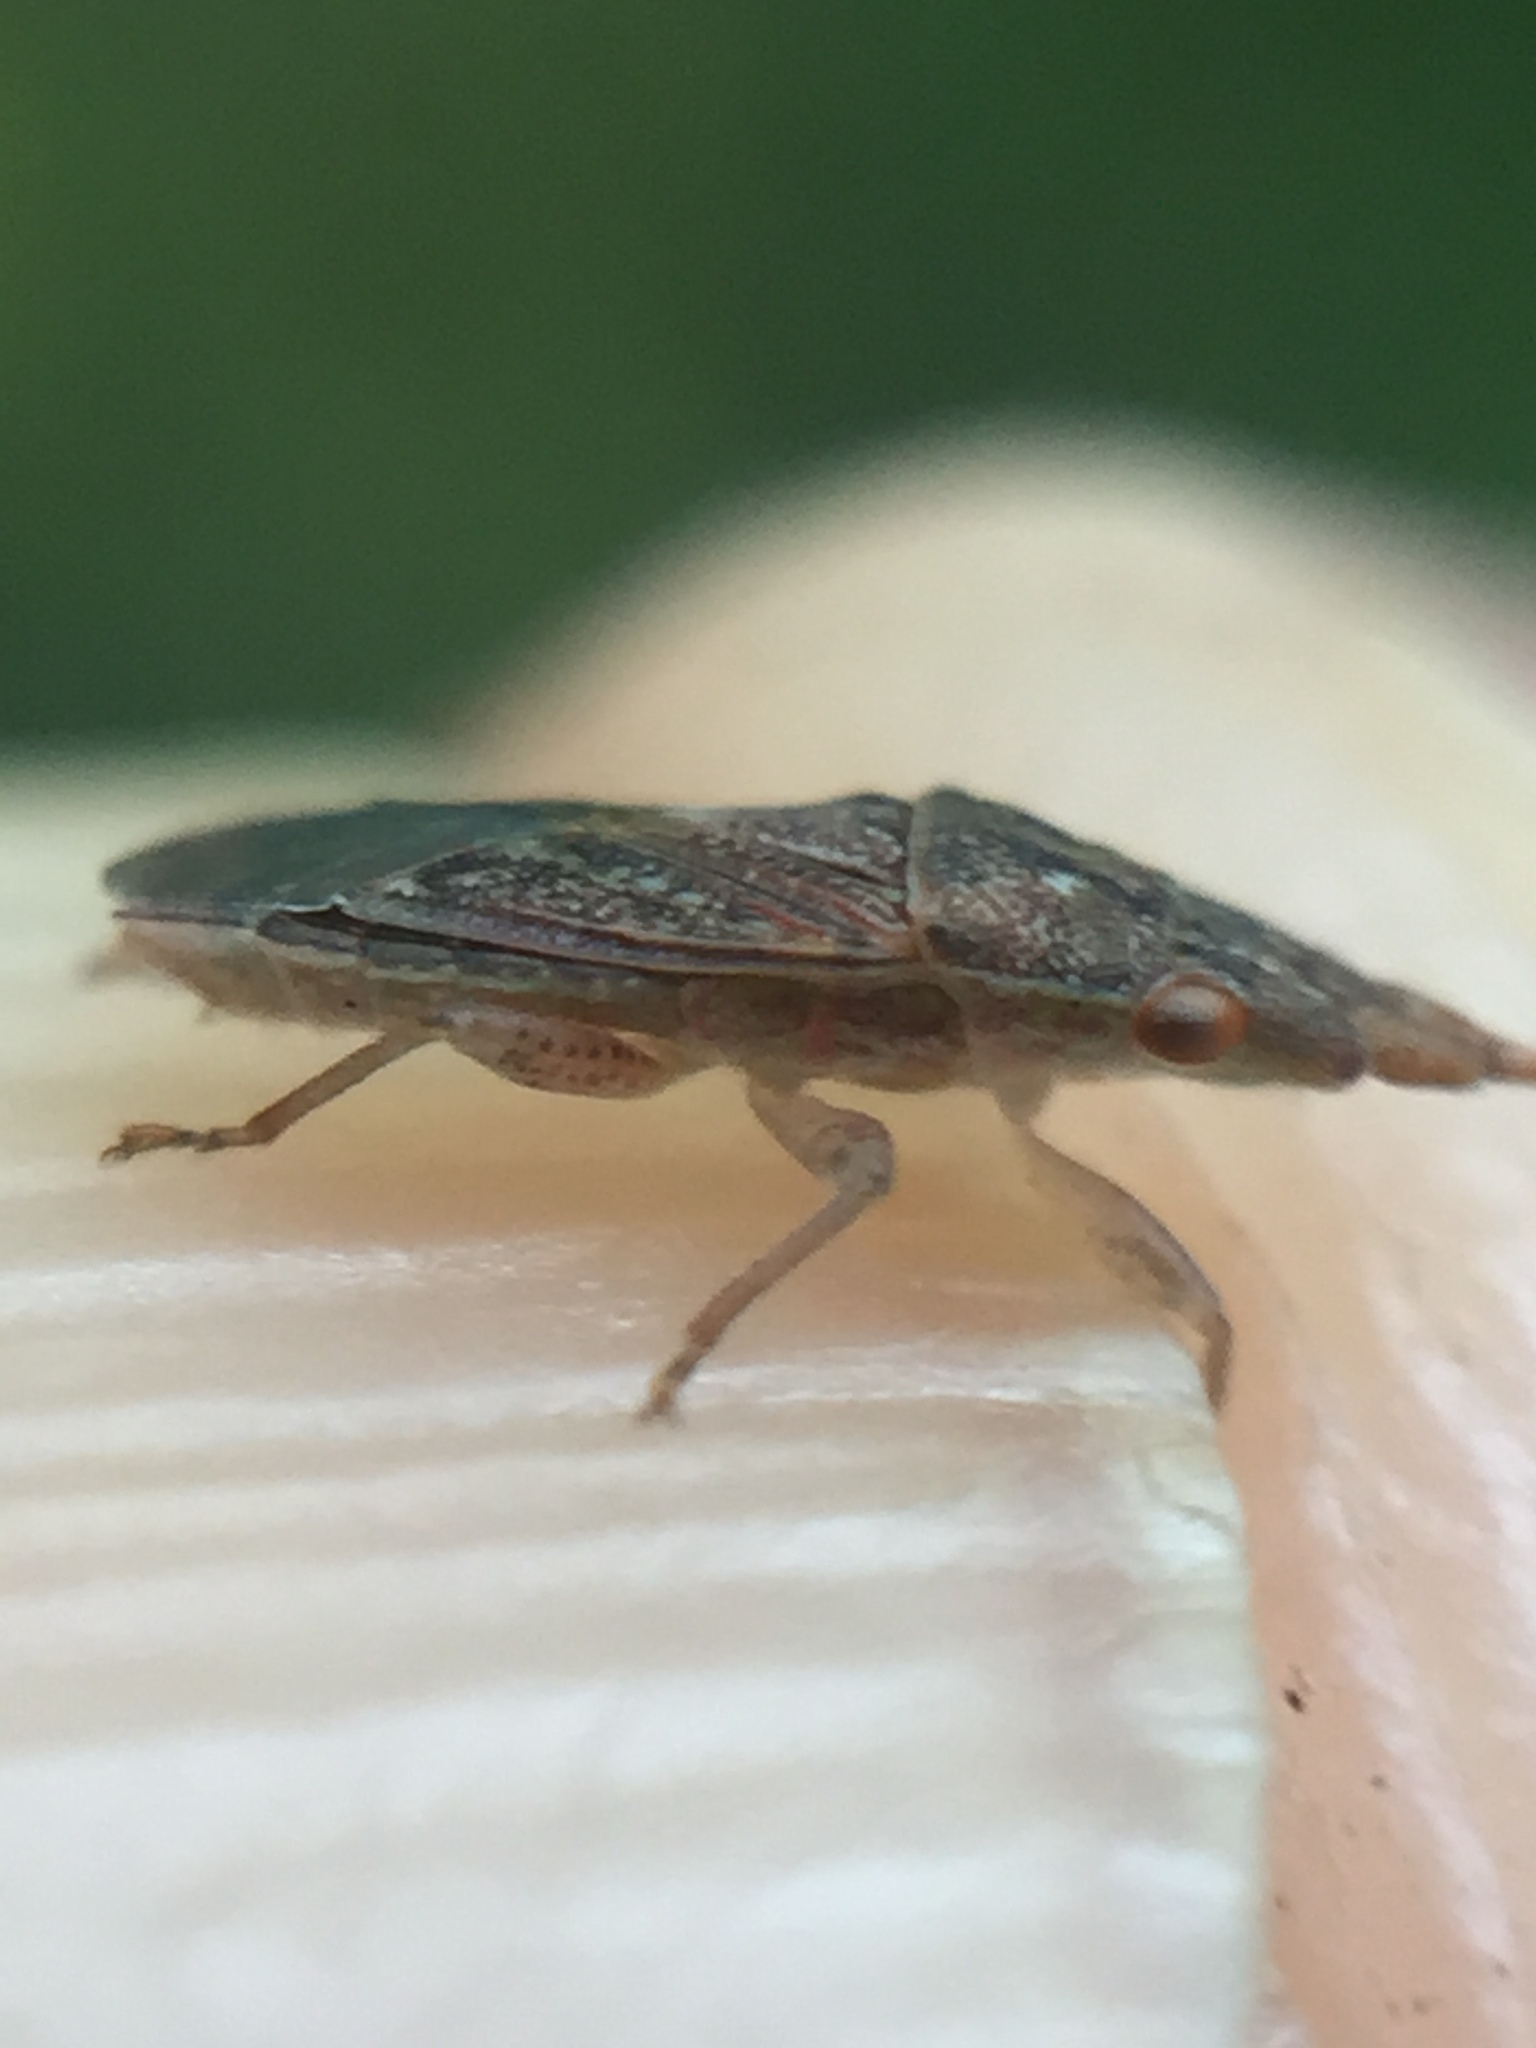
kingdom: Animalia
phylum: Arthropoda
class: Insecta
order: Hemiptera
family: Meschiidae
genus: Meschia
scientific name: Meschia barrowensis
